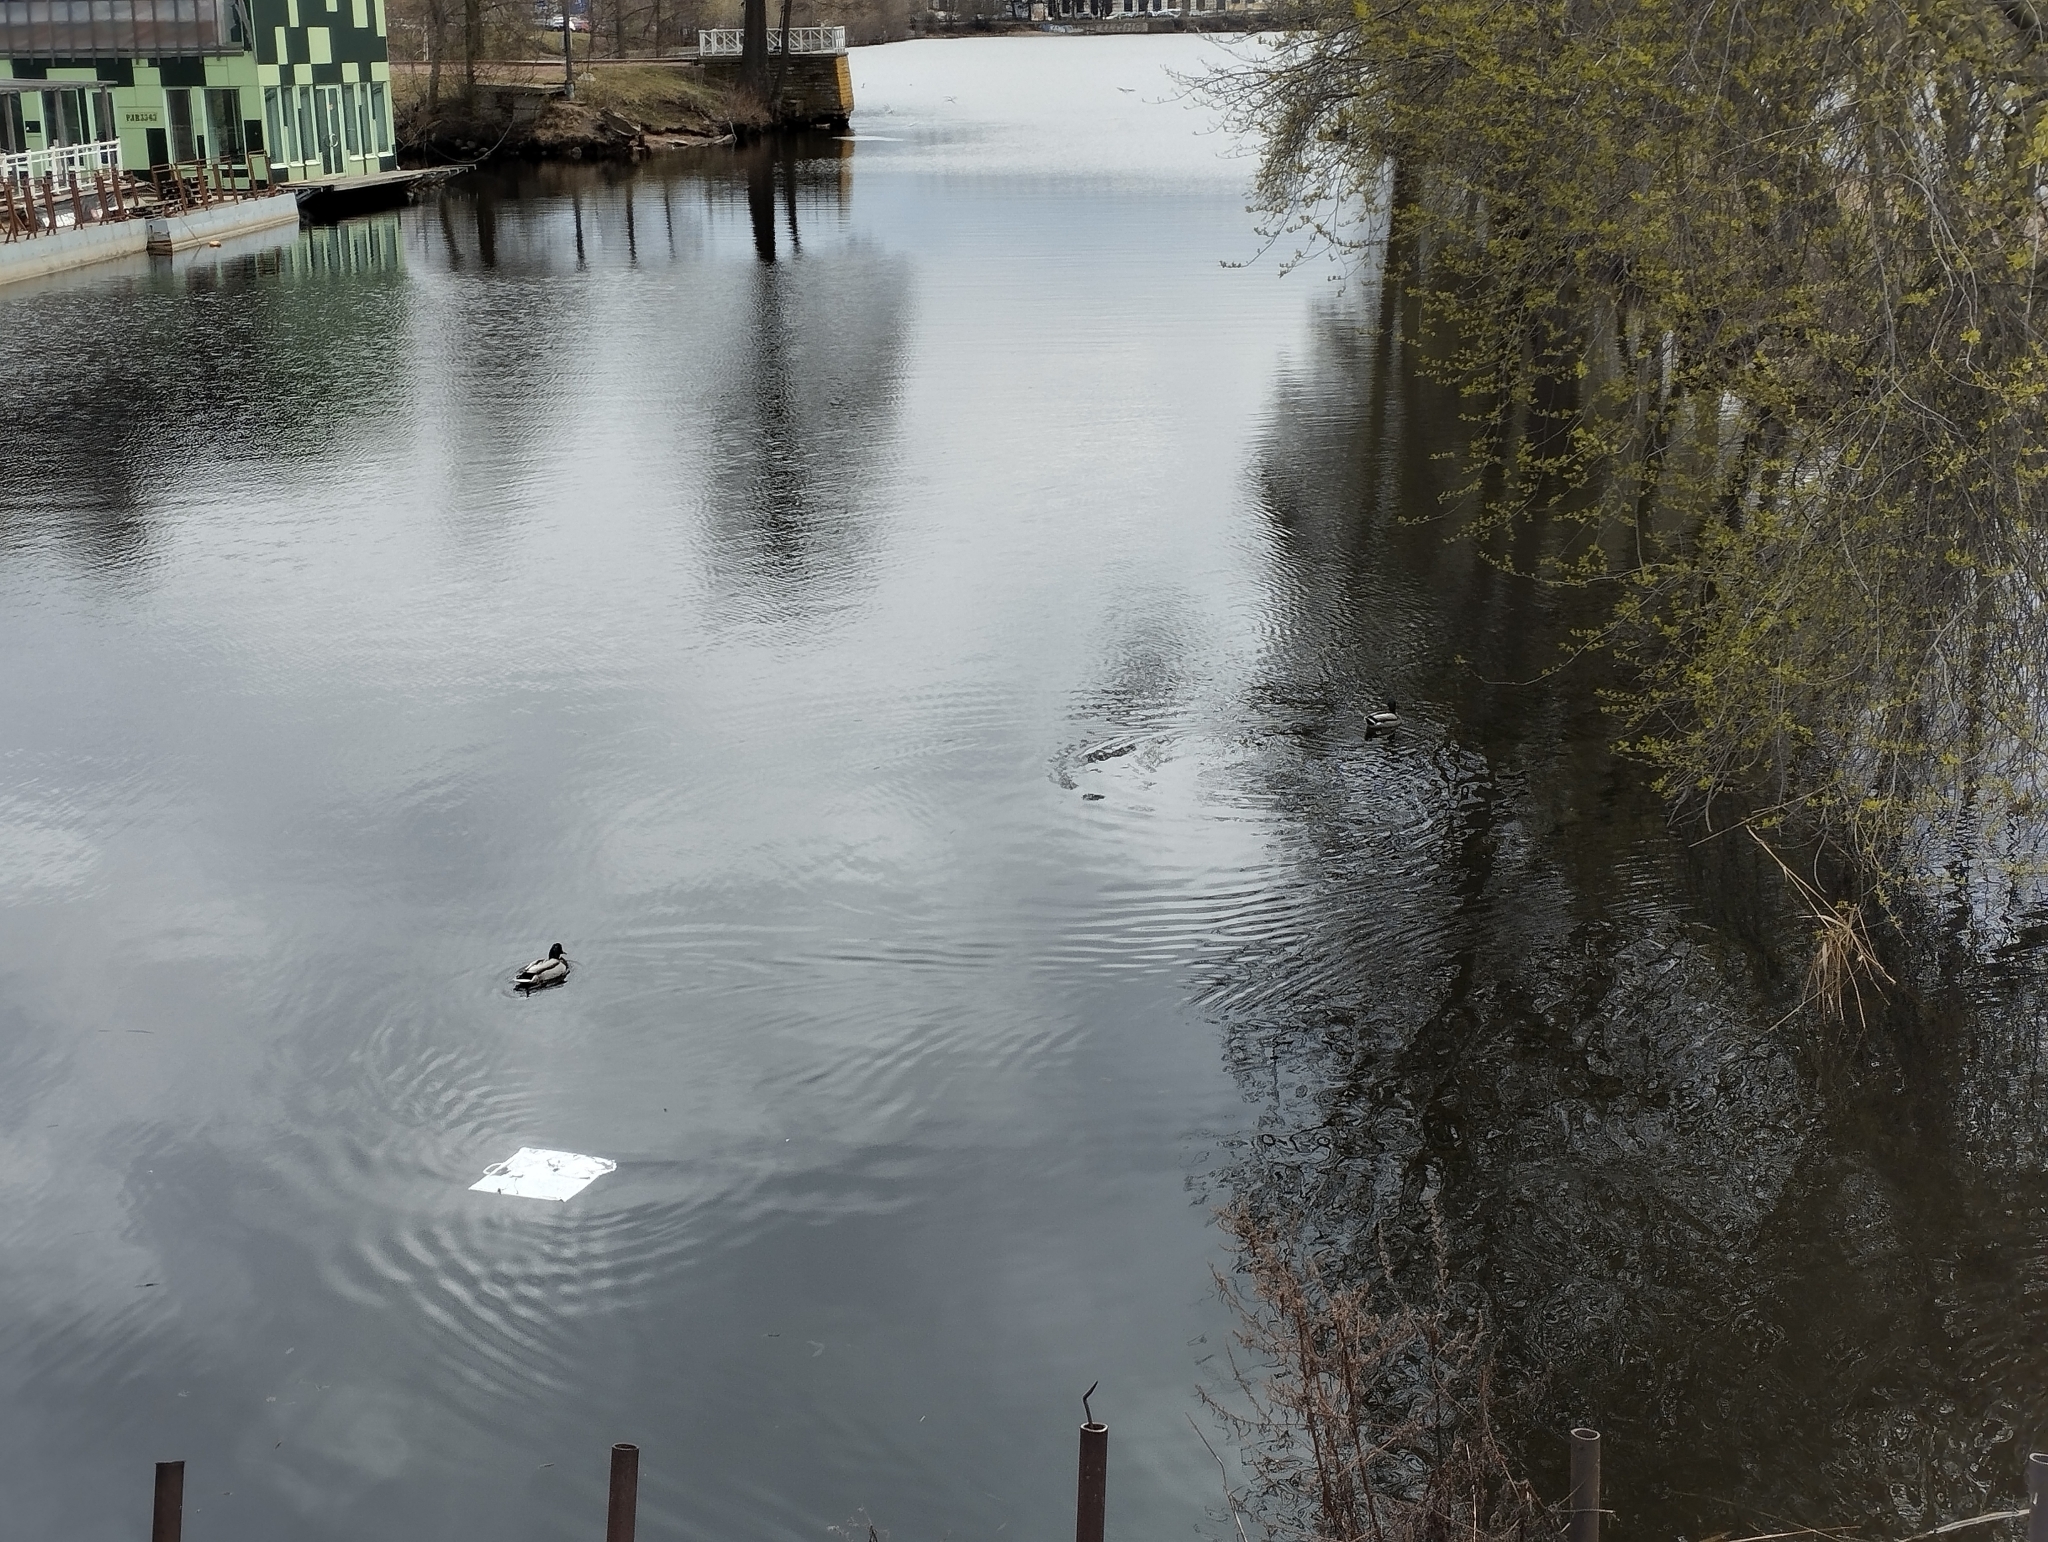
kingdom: Animalia
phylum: Chordata
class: Aves
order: Anseriformes
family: Anatidae
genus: Anas
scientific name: Anas platyrhynchos
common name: Mallard
